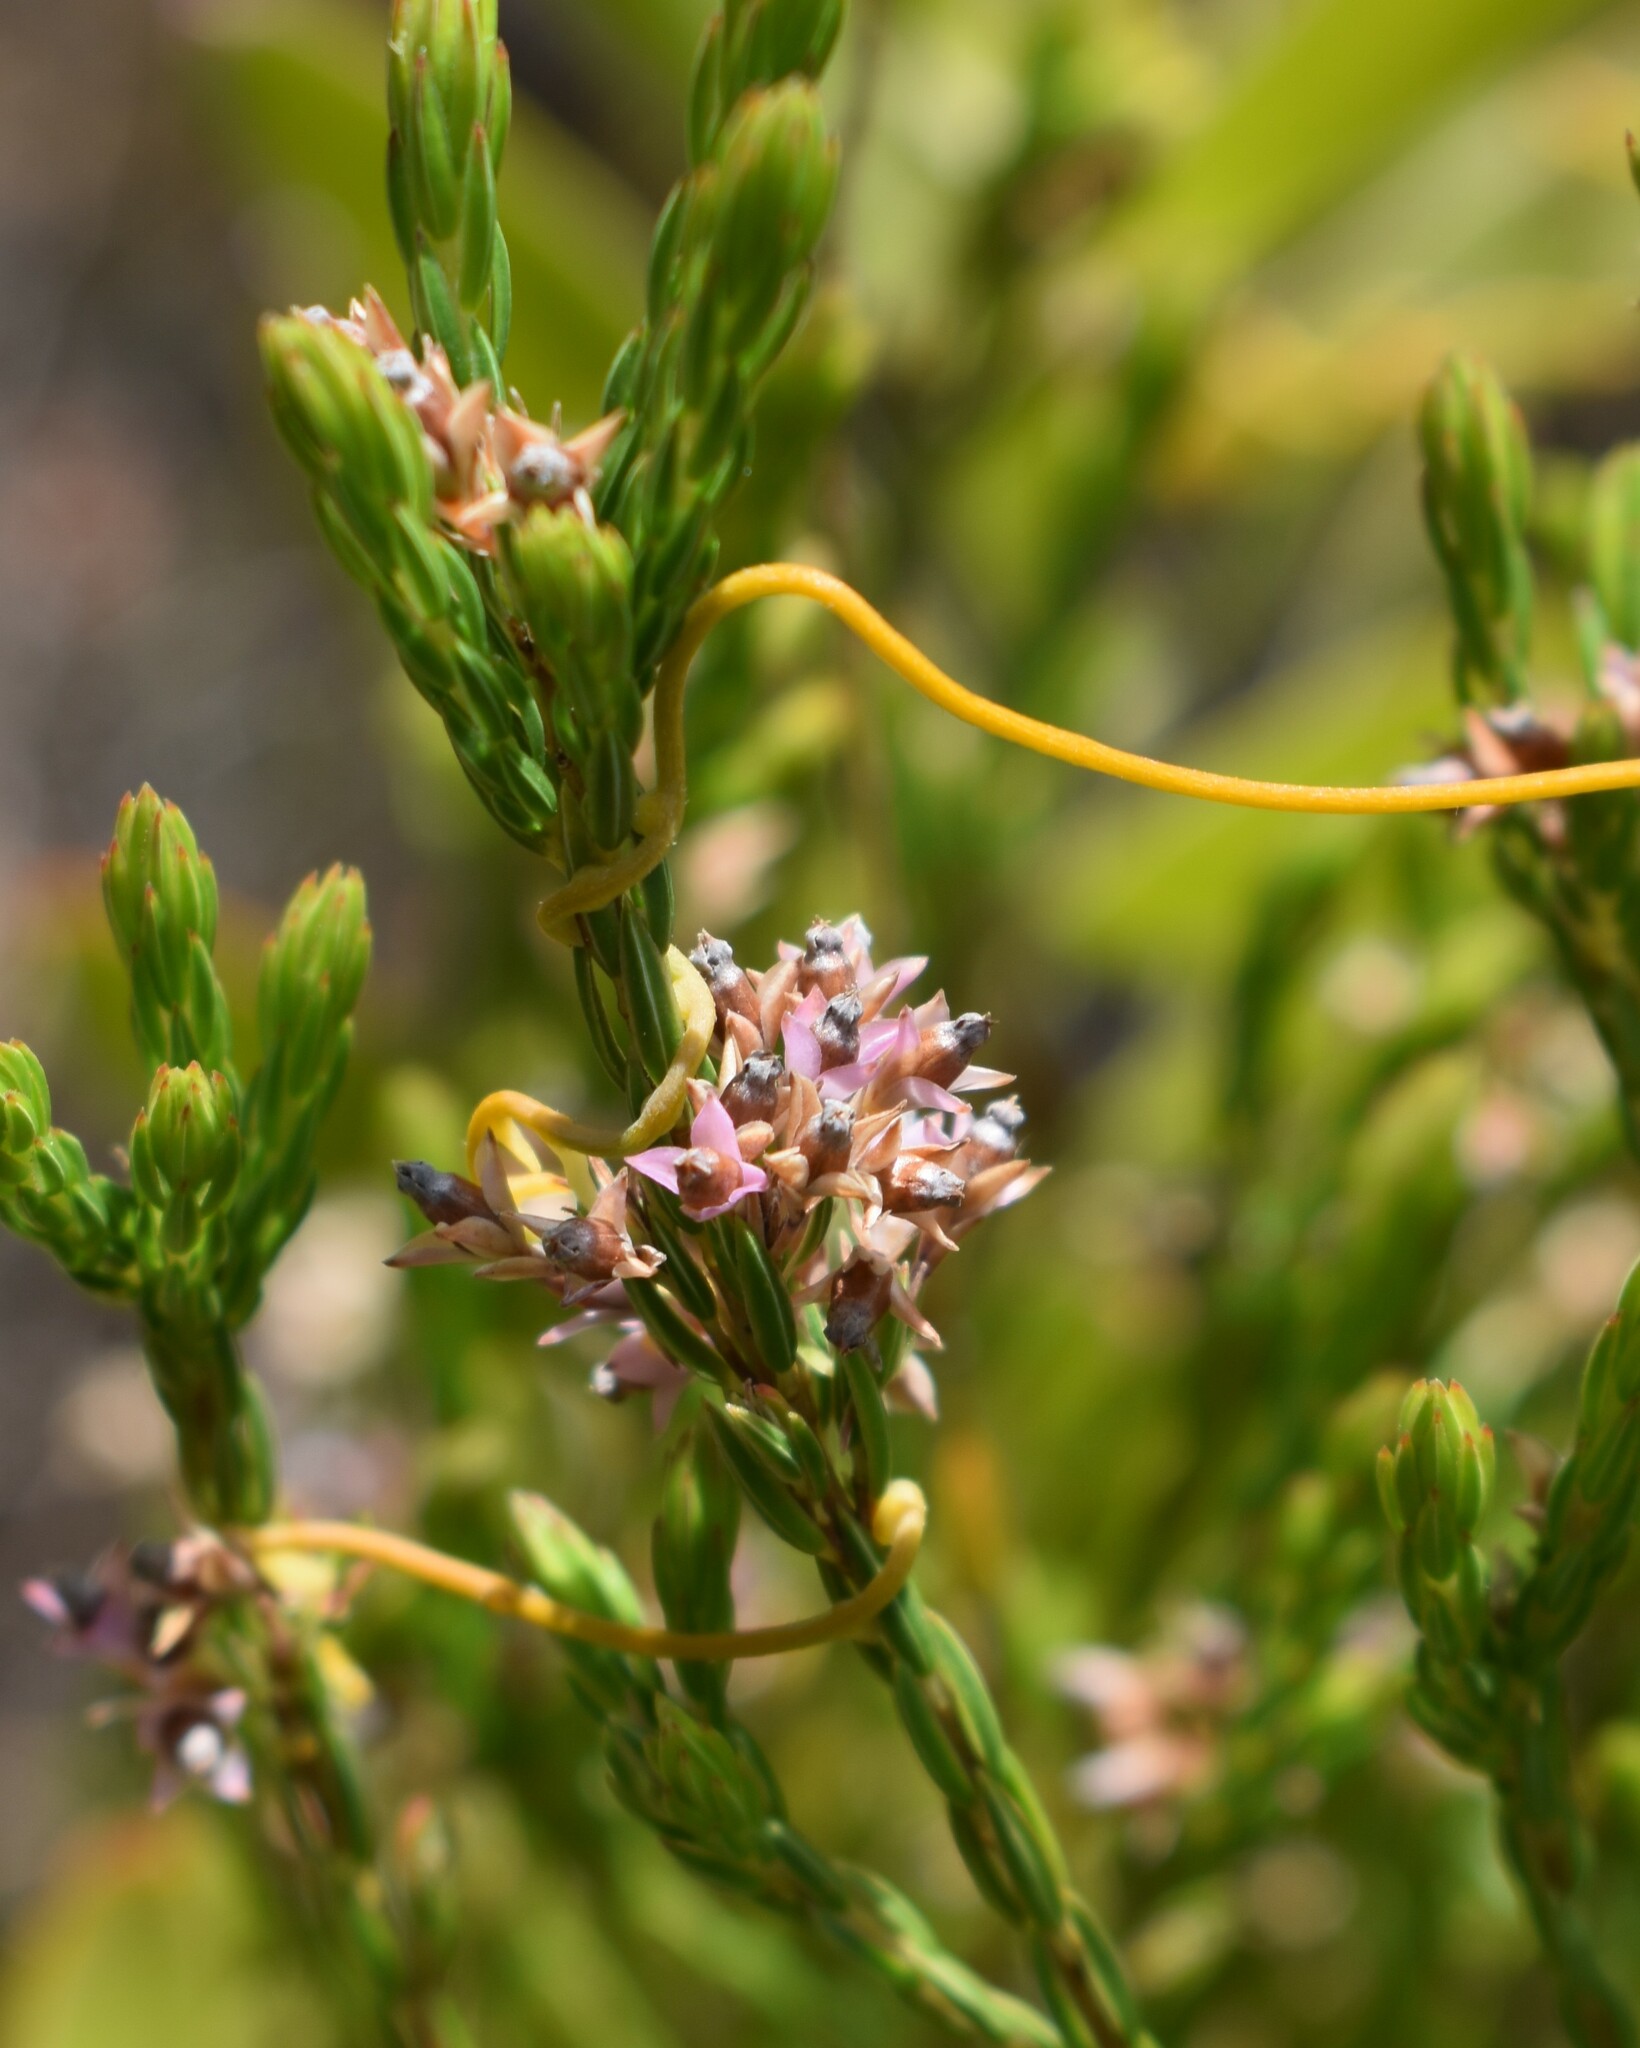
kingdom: Plantae
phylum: Tracheophyta
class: Magnoliopsida
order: Ericales
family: Ericaceae
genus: Erica
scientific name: Erica corifolia
